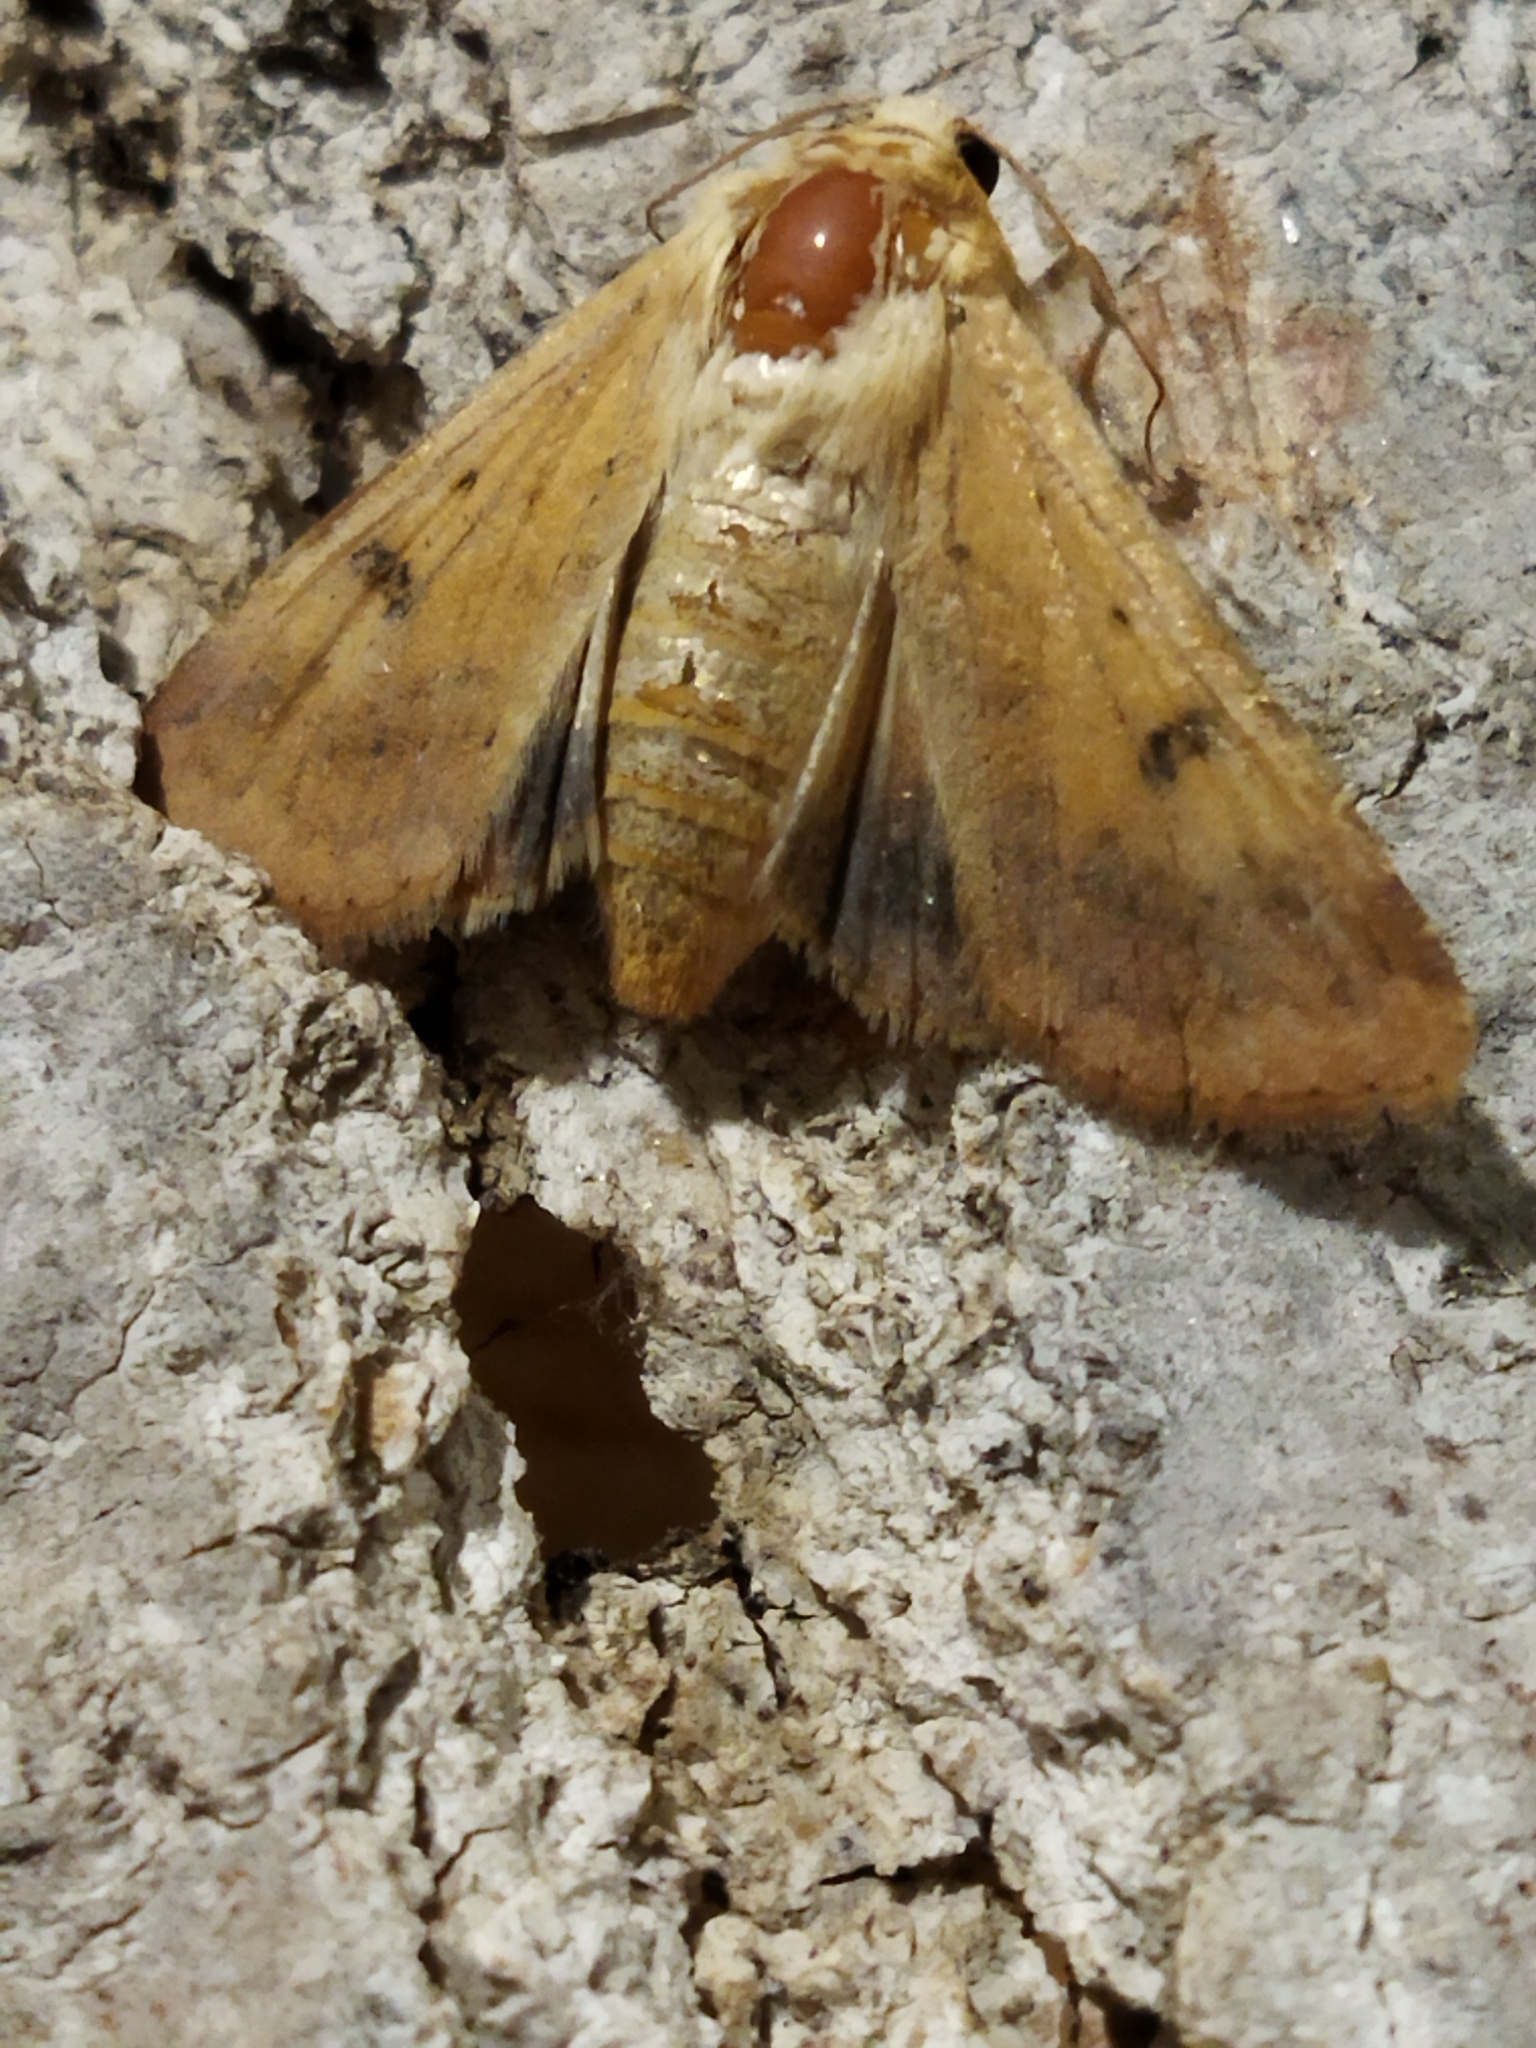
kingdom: Animalia
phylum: Arthropoda
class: Insecta
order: Lepidoptera
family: Noctuidae
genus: Helicoverpa
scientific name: Helicoverpa armigera
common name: Cotton bollworm
